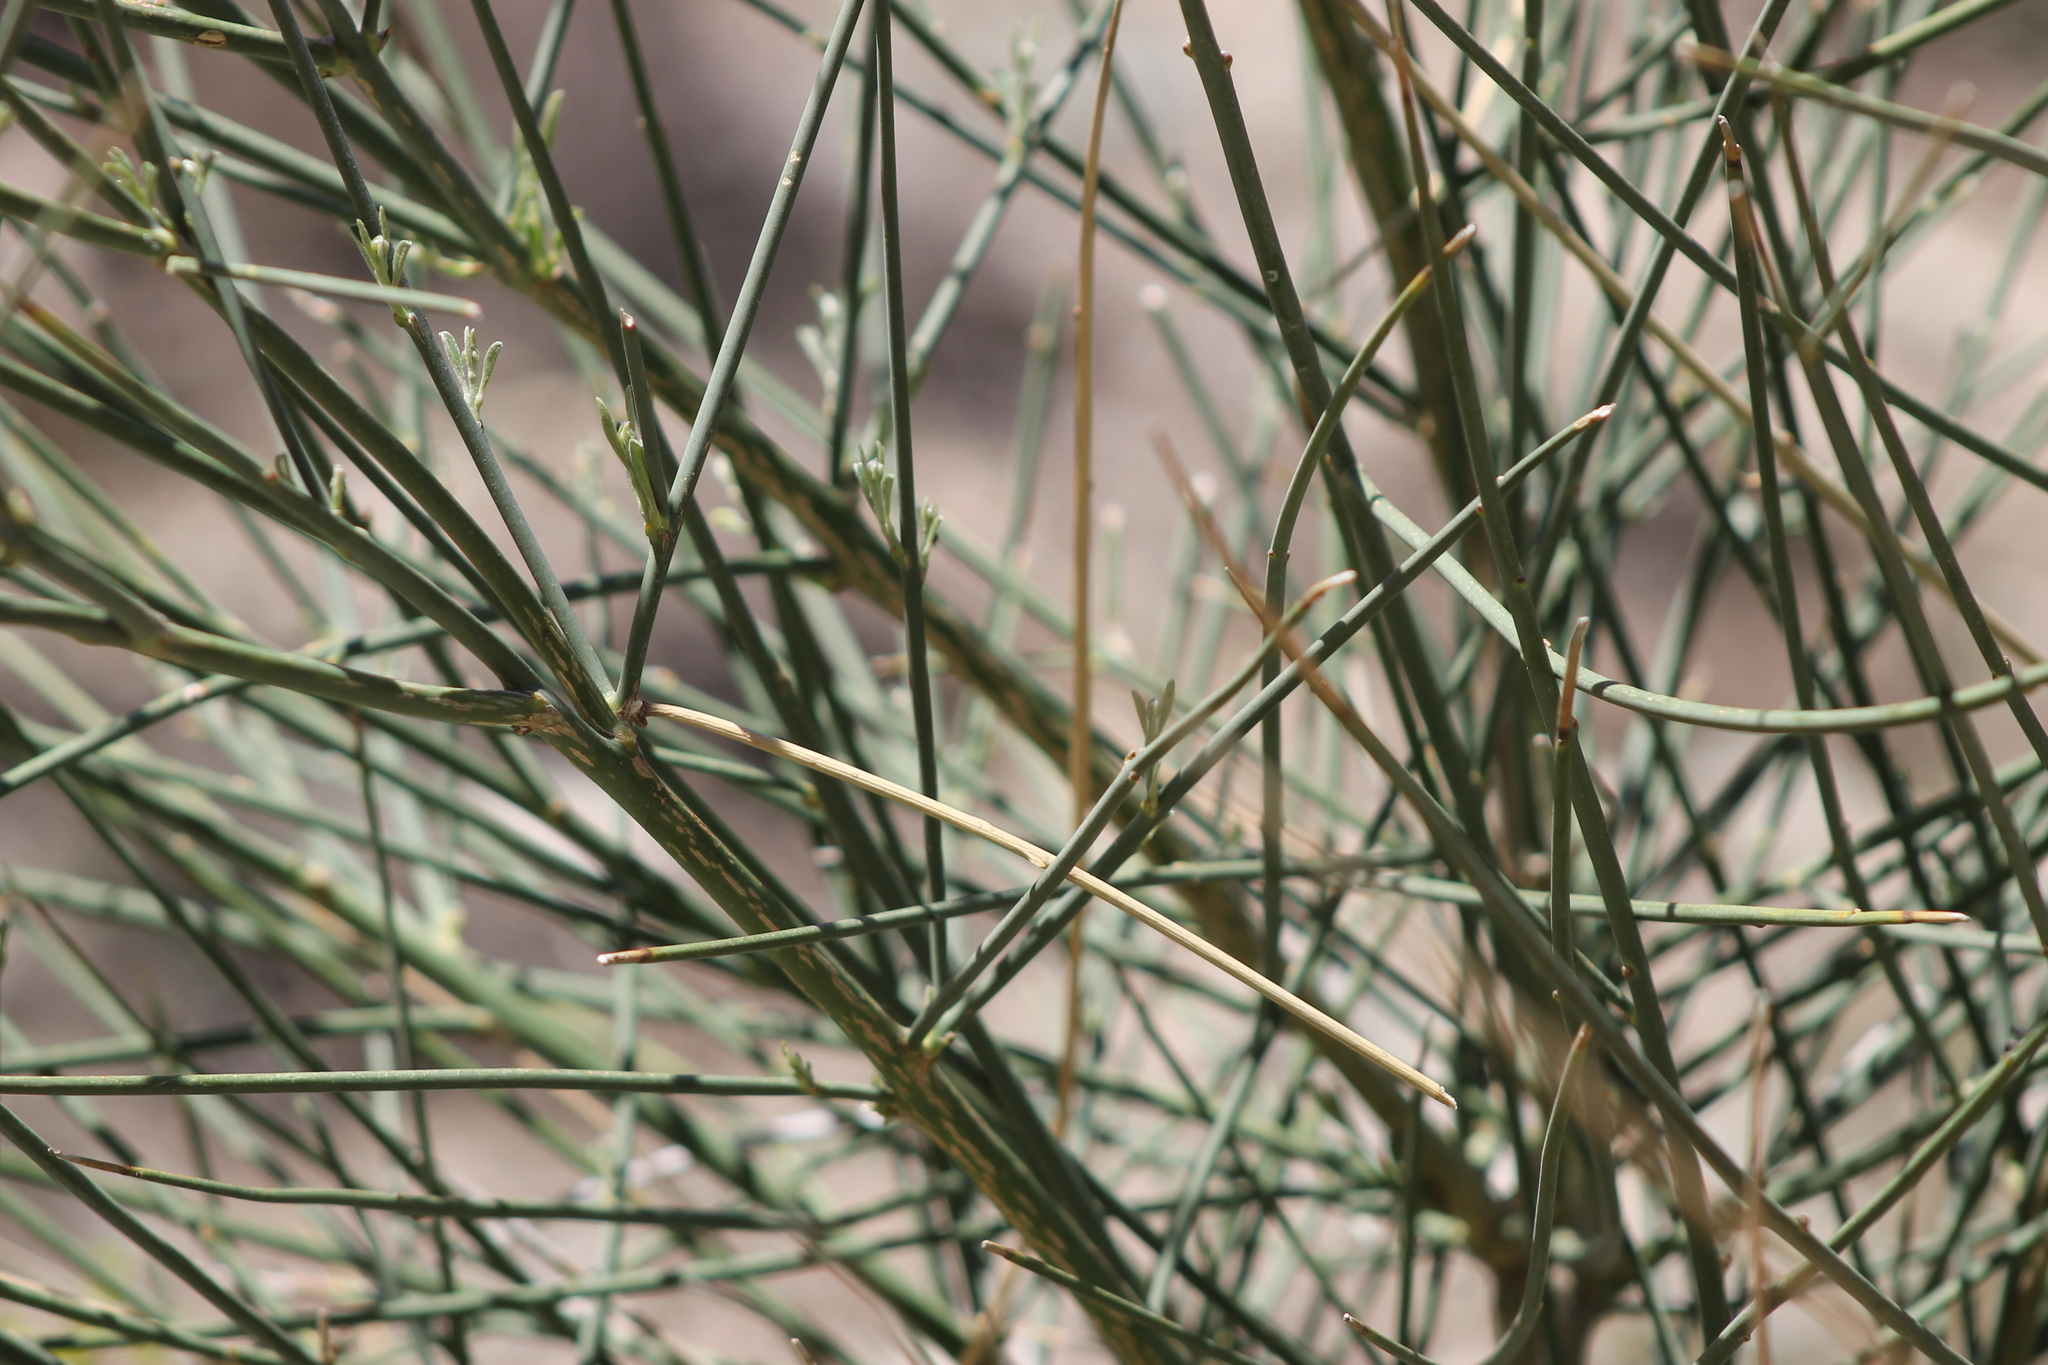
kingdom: Plantae
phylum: Tracheophyta
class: Magnoliopsida
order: Fabales
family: Fabaceae
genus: Spartium
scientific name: Spartium junceum
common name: Spanish broom
